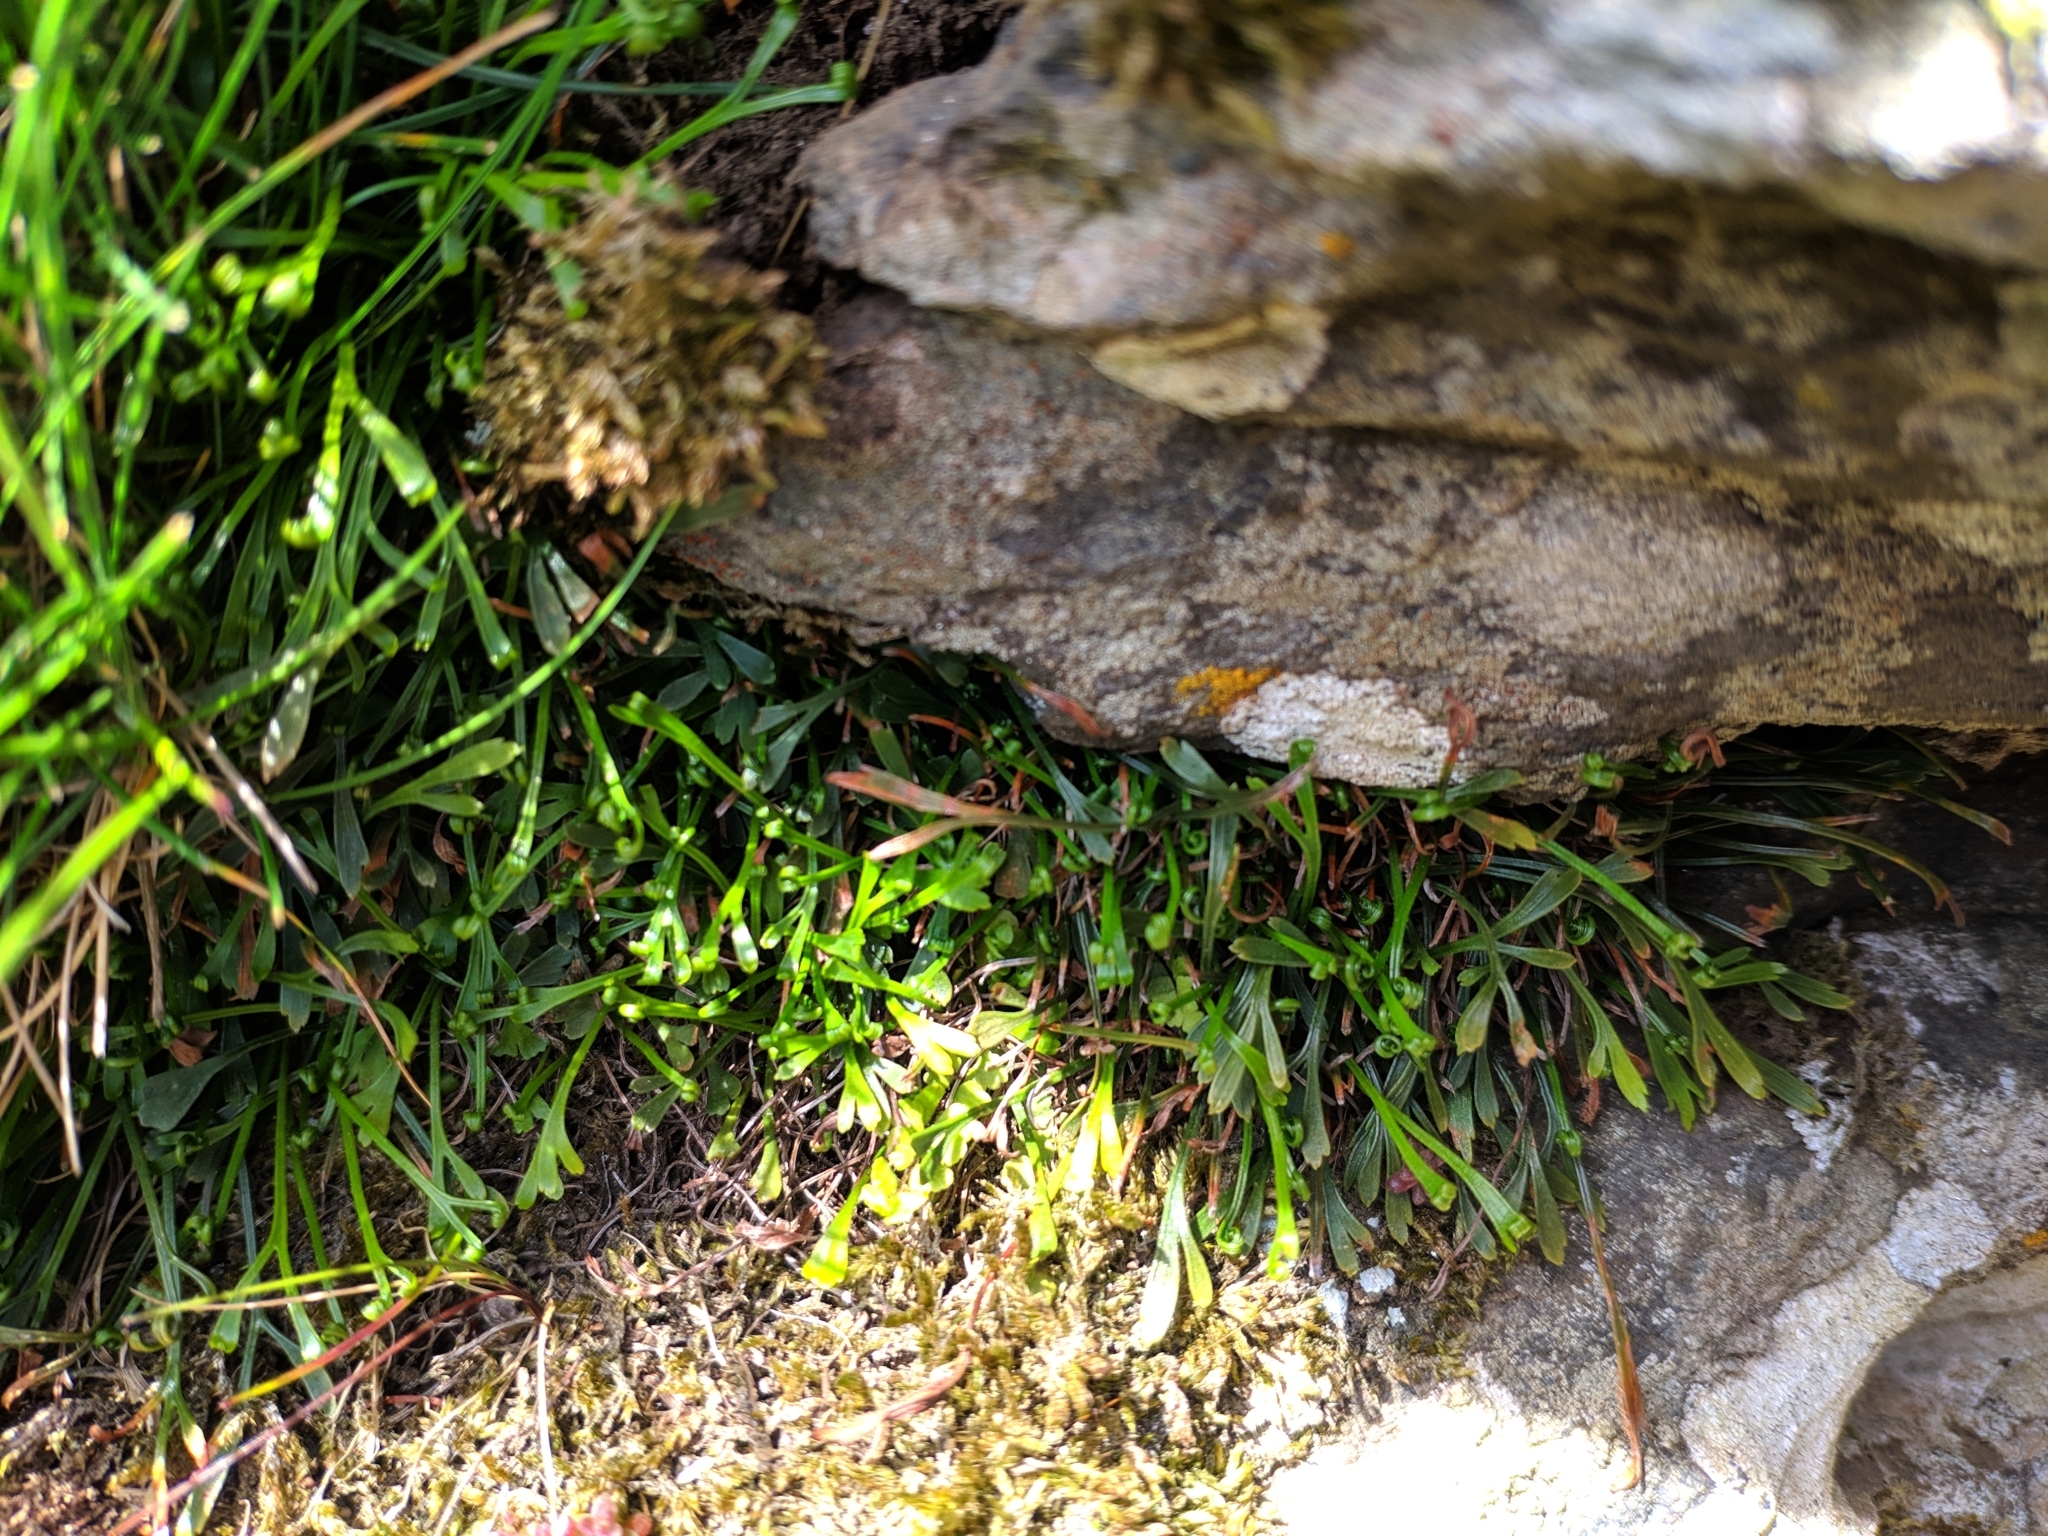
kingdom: Plantae
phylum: Tracheophyta
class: Polypodiopsida
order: Polypodiales
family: Aspleniaceae
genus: Asplenium
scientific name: Asplenium septentrionale
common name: Forked spleenwort
